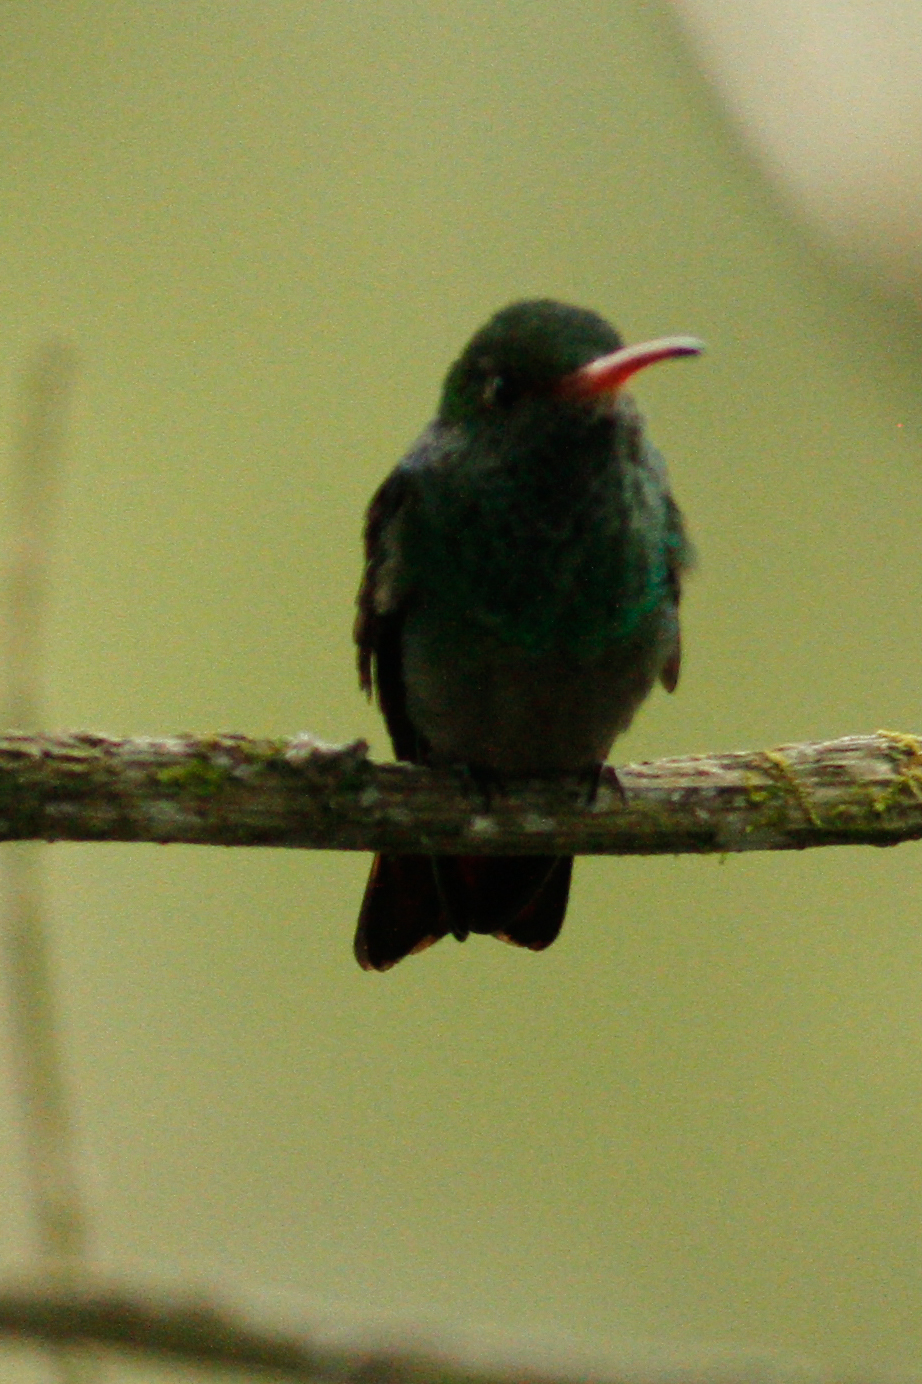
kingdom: Animalia
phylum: Chordata
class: Aves
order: Apodiformes
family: Trochilidae
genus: Amazilia
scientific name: Amazilia tzacatl
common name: Rufous-tailed hummingbird
